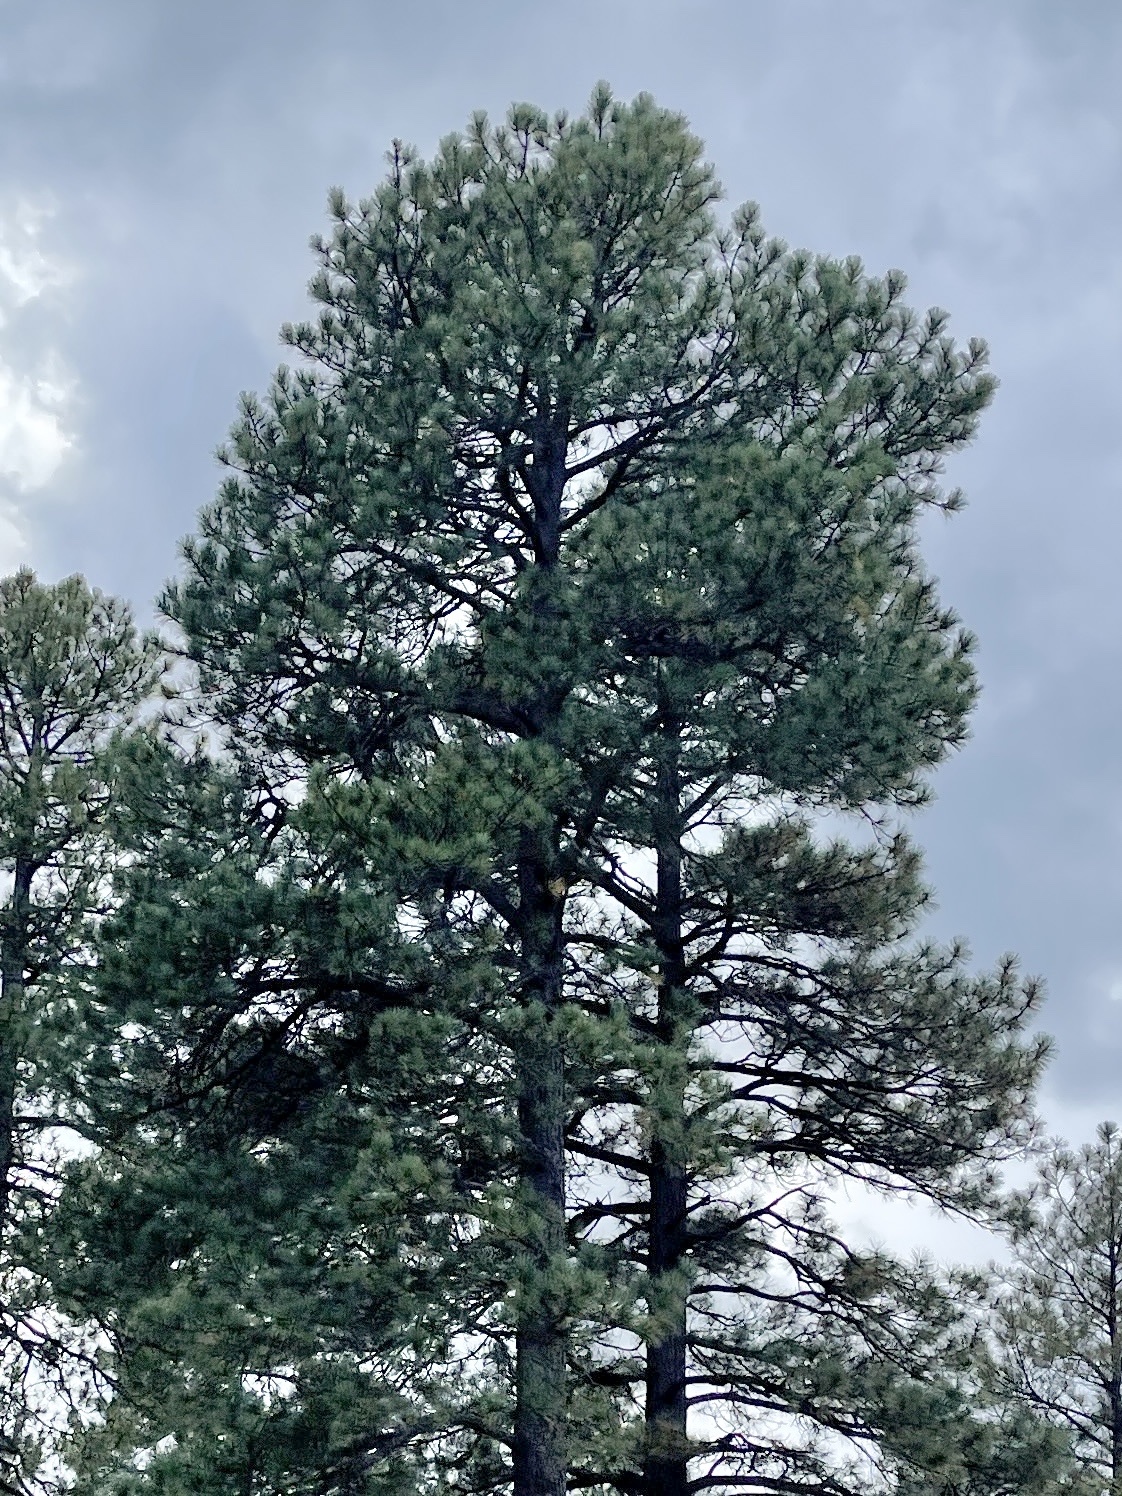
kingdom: Plantae
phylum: Tracheophyta
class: Pinopsida
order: Pinales
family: Pinaceae
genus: Pinus
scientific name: Pinus ponderosa
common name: Western yellow-pine
